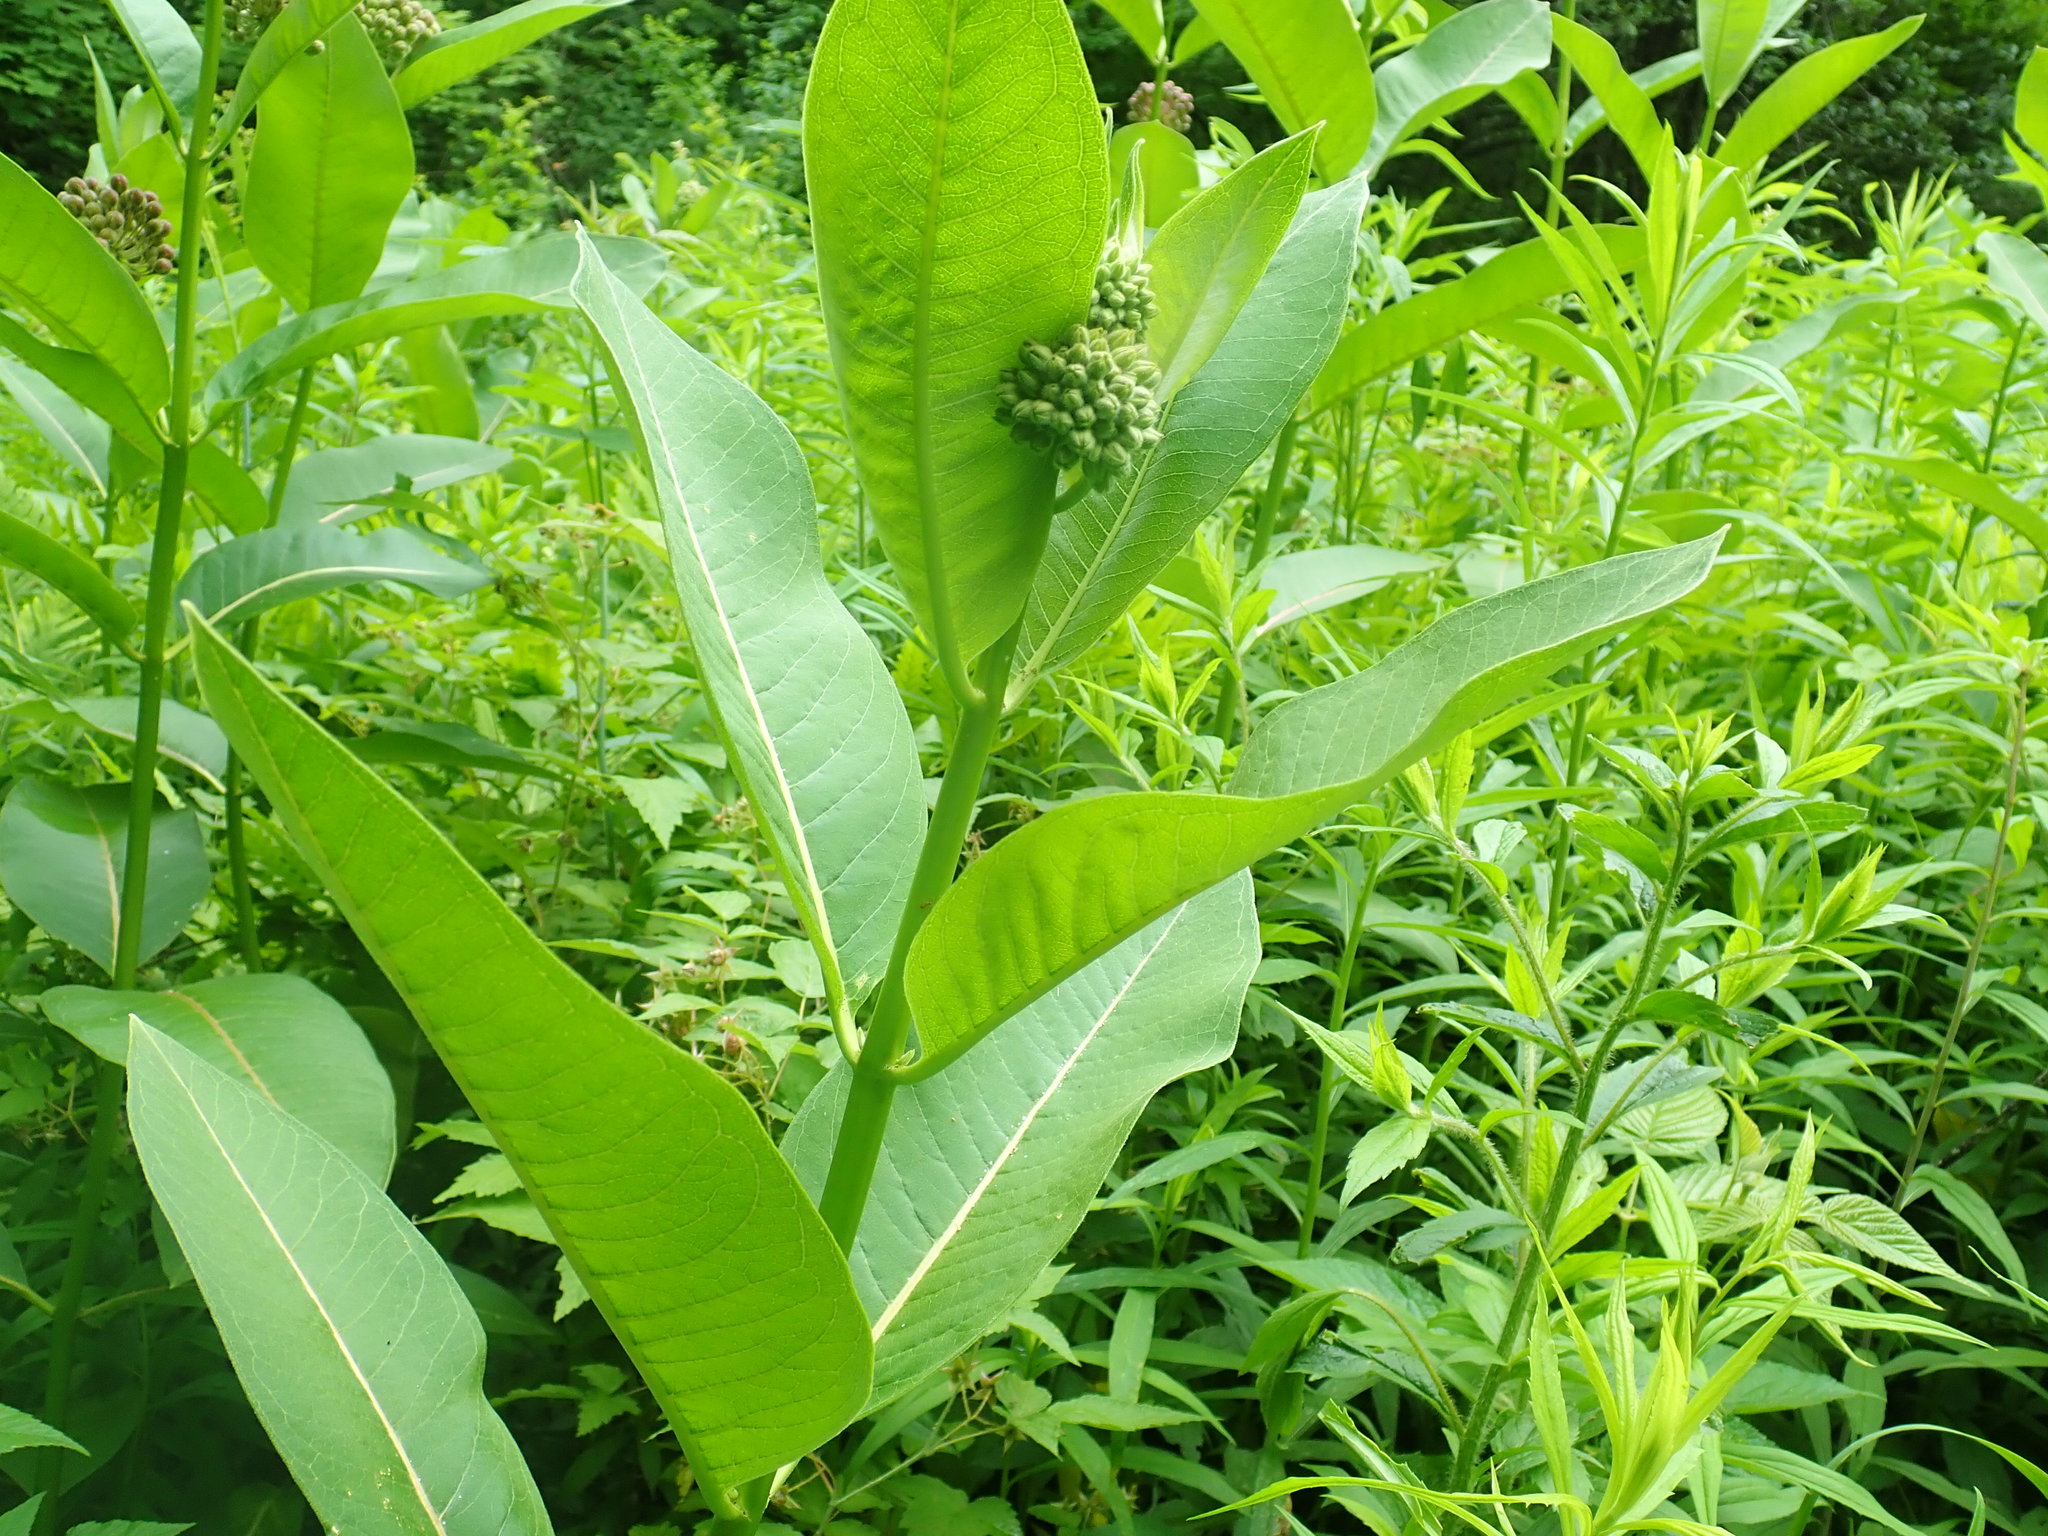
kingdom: Plantae
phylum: Tracheophyta
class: Magnoliopsida
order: Gentianales
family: Apocynaceae
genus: Asclepias
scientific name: Asclepias syriaca
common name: Common milkweed
